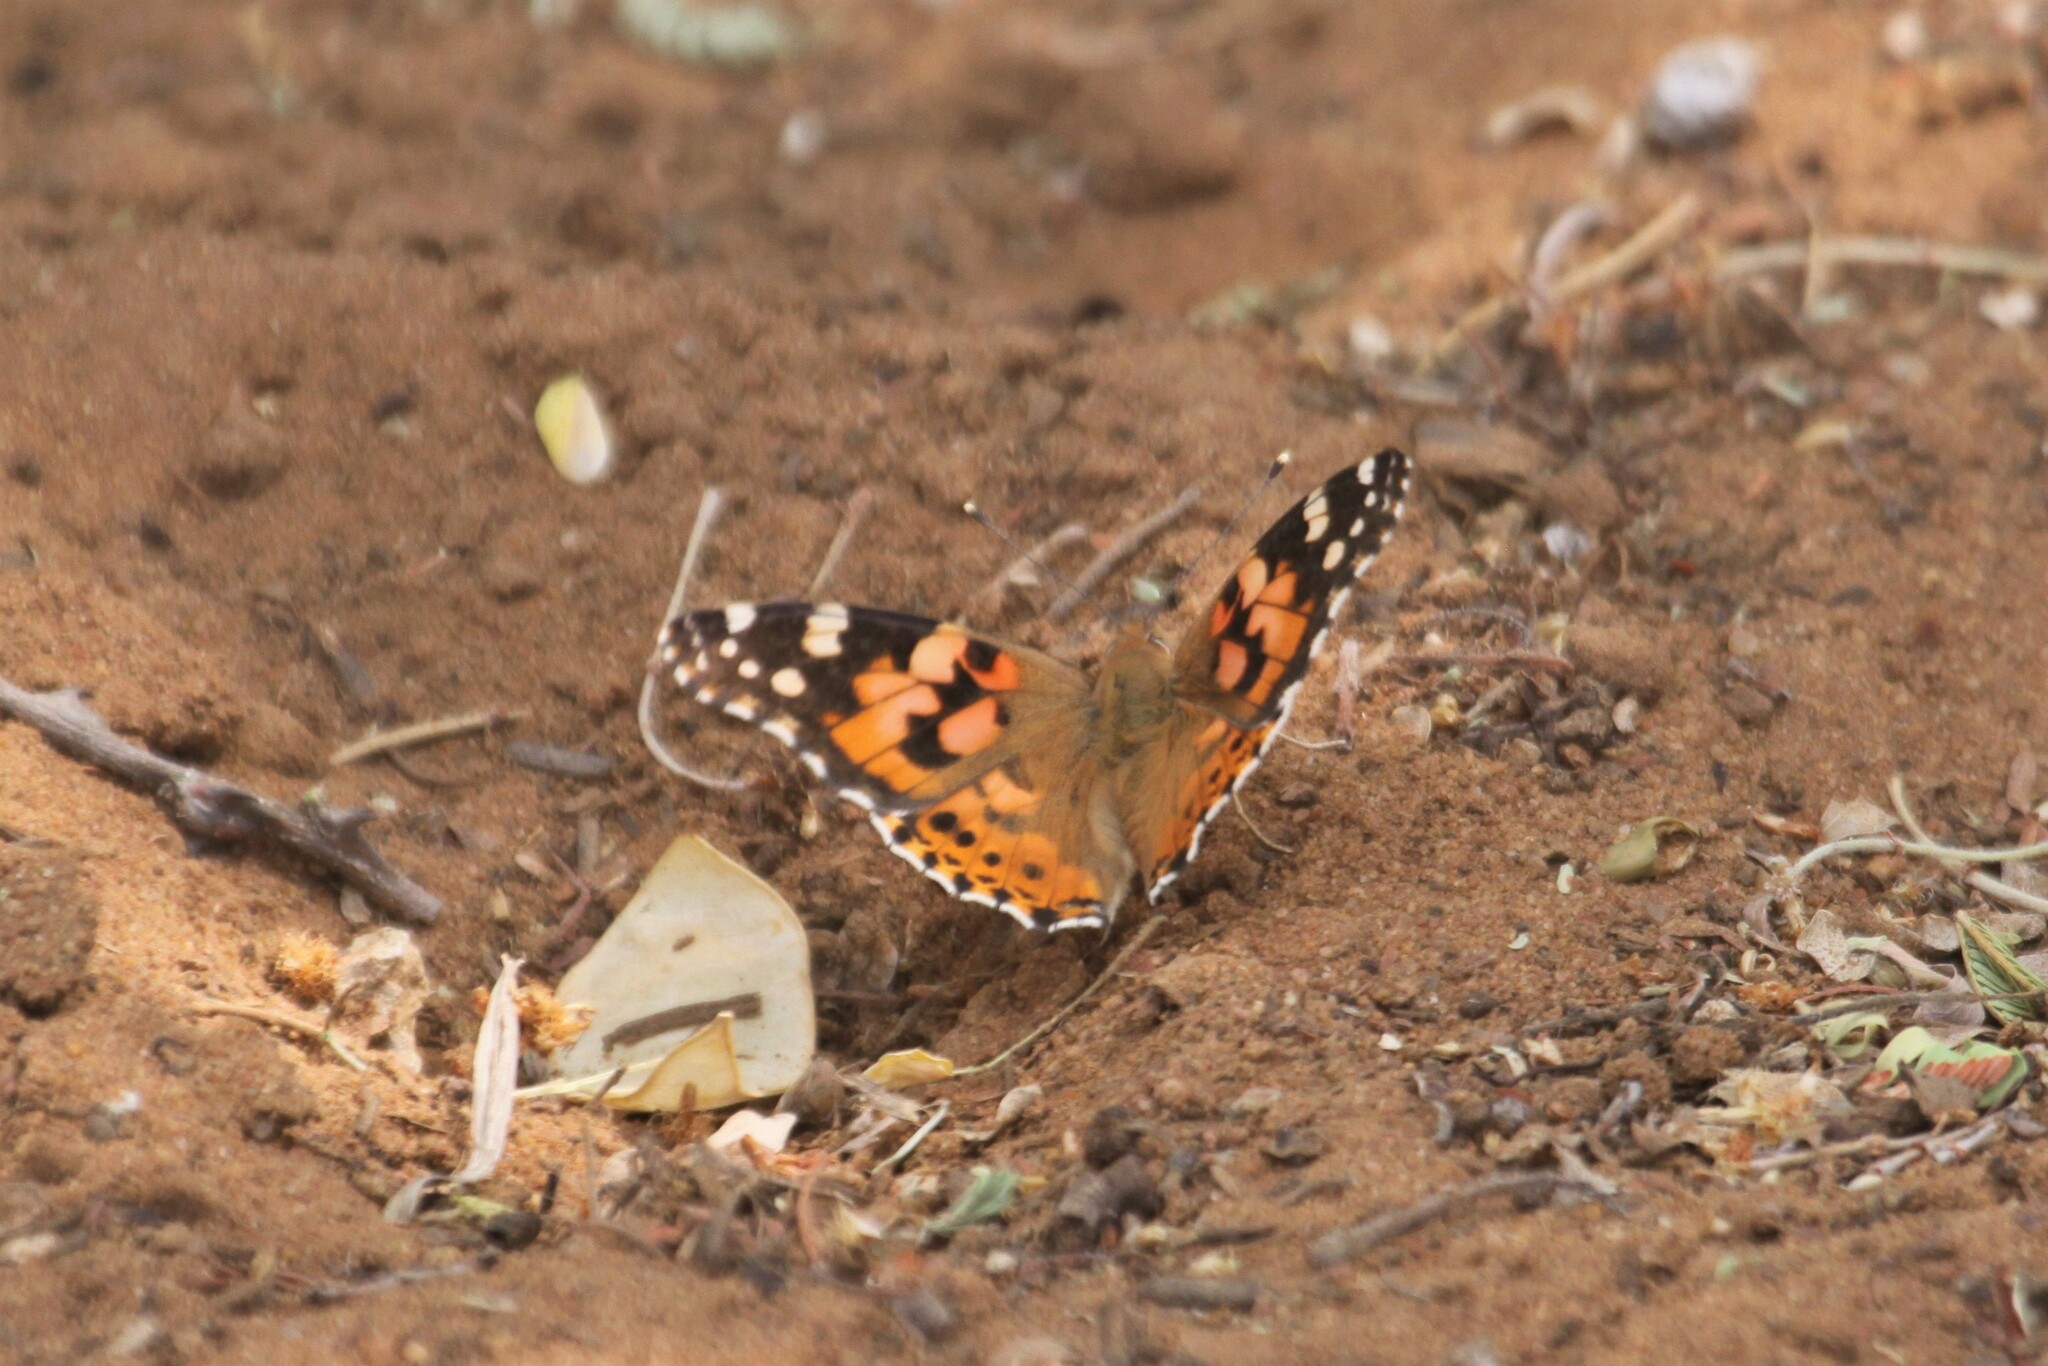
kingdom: Animalia
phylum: Arthropoda
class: Insecta
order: Lepidoptera
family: Nymphalidae
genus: Vanessa
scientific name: Vanessa cardui
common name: Painted lady
